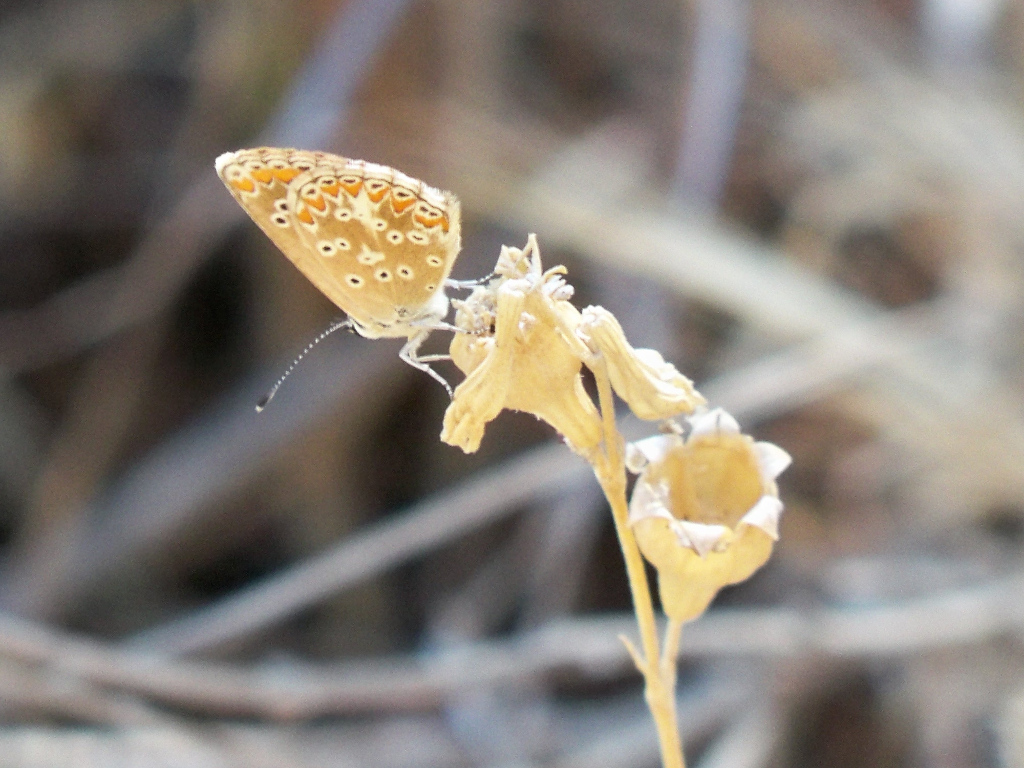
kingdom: Animalia
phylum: Arthropoda
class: Insecta
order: Lepidoptera
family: Lycaenidae
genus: Aricia
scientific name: Aricia cramera
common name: Eschscholtz´s brown  argus
